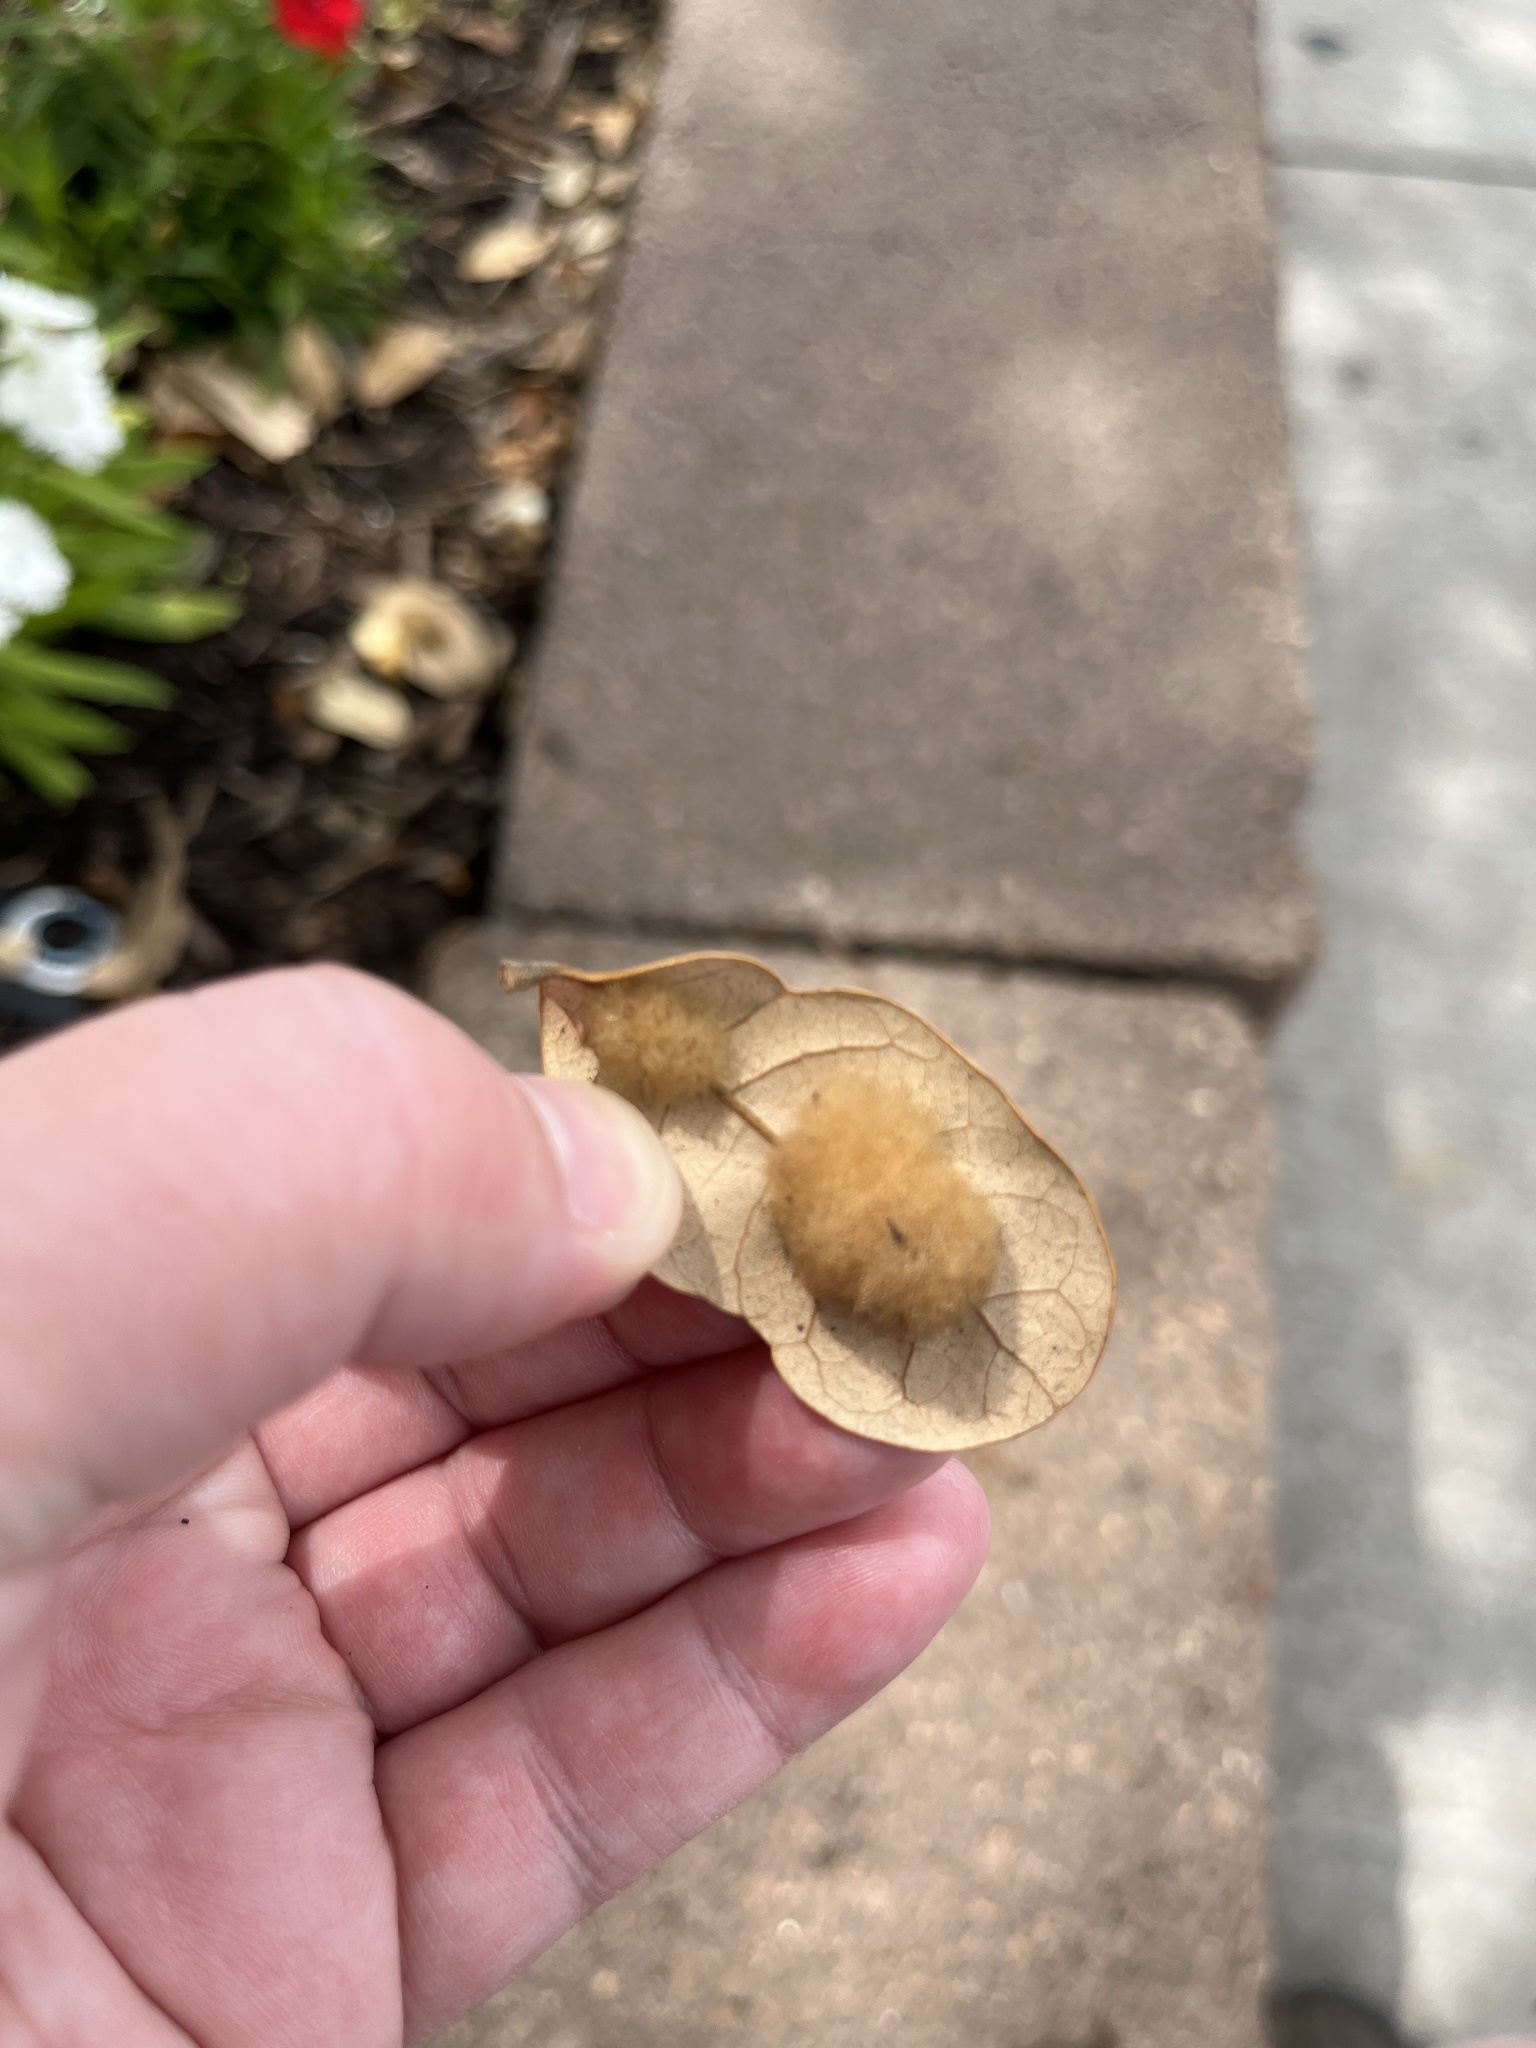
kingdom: Animalia
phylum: Arthropoda
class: Insecta
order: Hymenoptera
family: Cynipidae
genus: Andricus
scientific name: Andricus Druon quercuslanigerum
